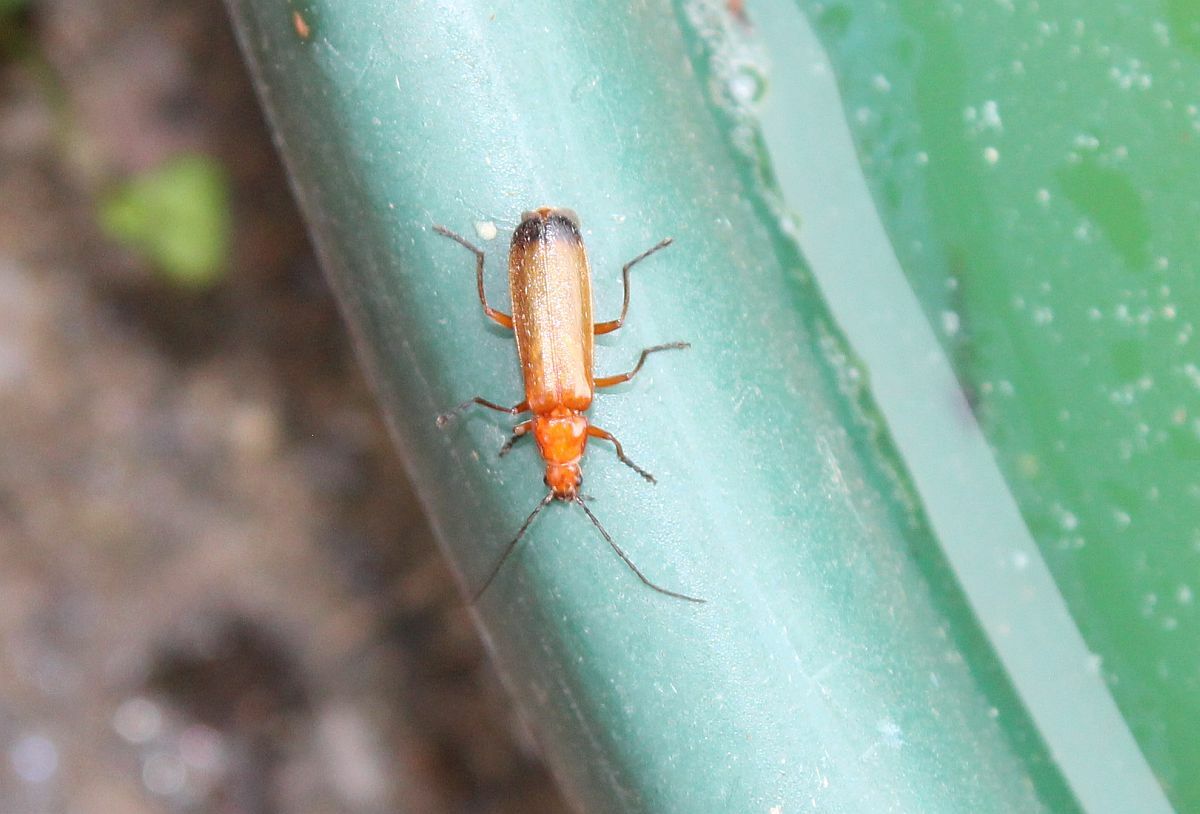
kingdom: Animalia
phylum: Arthropoda
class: Insecta
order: Coleoptera
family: Cantharidae
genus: Rhagonycha
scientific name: Rhagonycha fulva
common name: Common red soldier beetle
